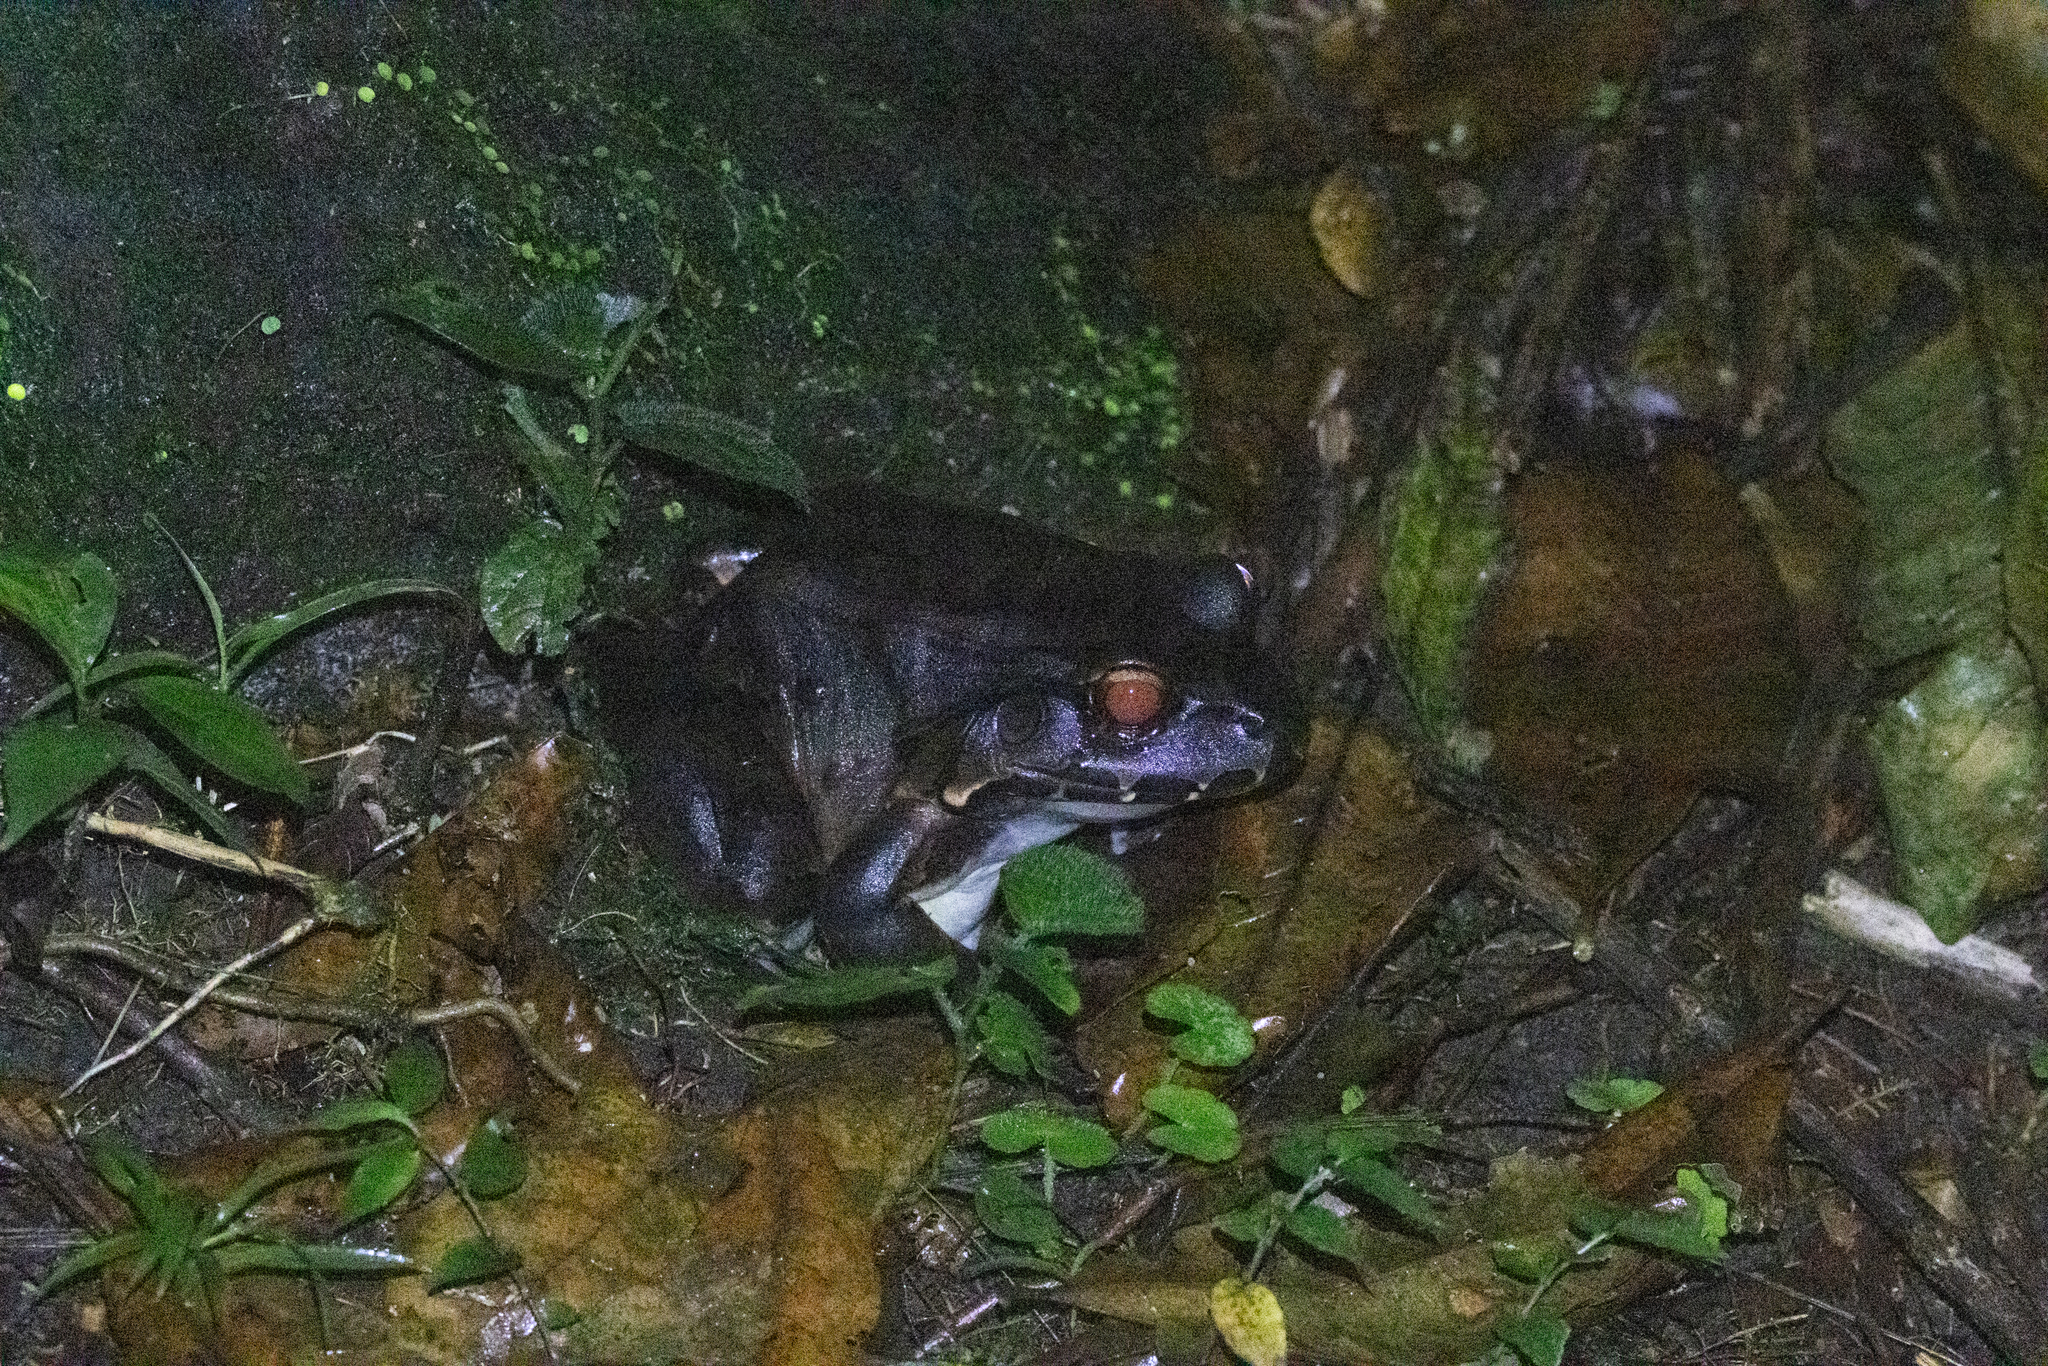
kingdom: Animalia
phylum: Chordata
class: Amphibia
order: Anura
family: Leptodactylidae
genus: Leptodactylus
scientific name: Leptodactylus savagei
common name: Savage's thin-toed frog
